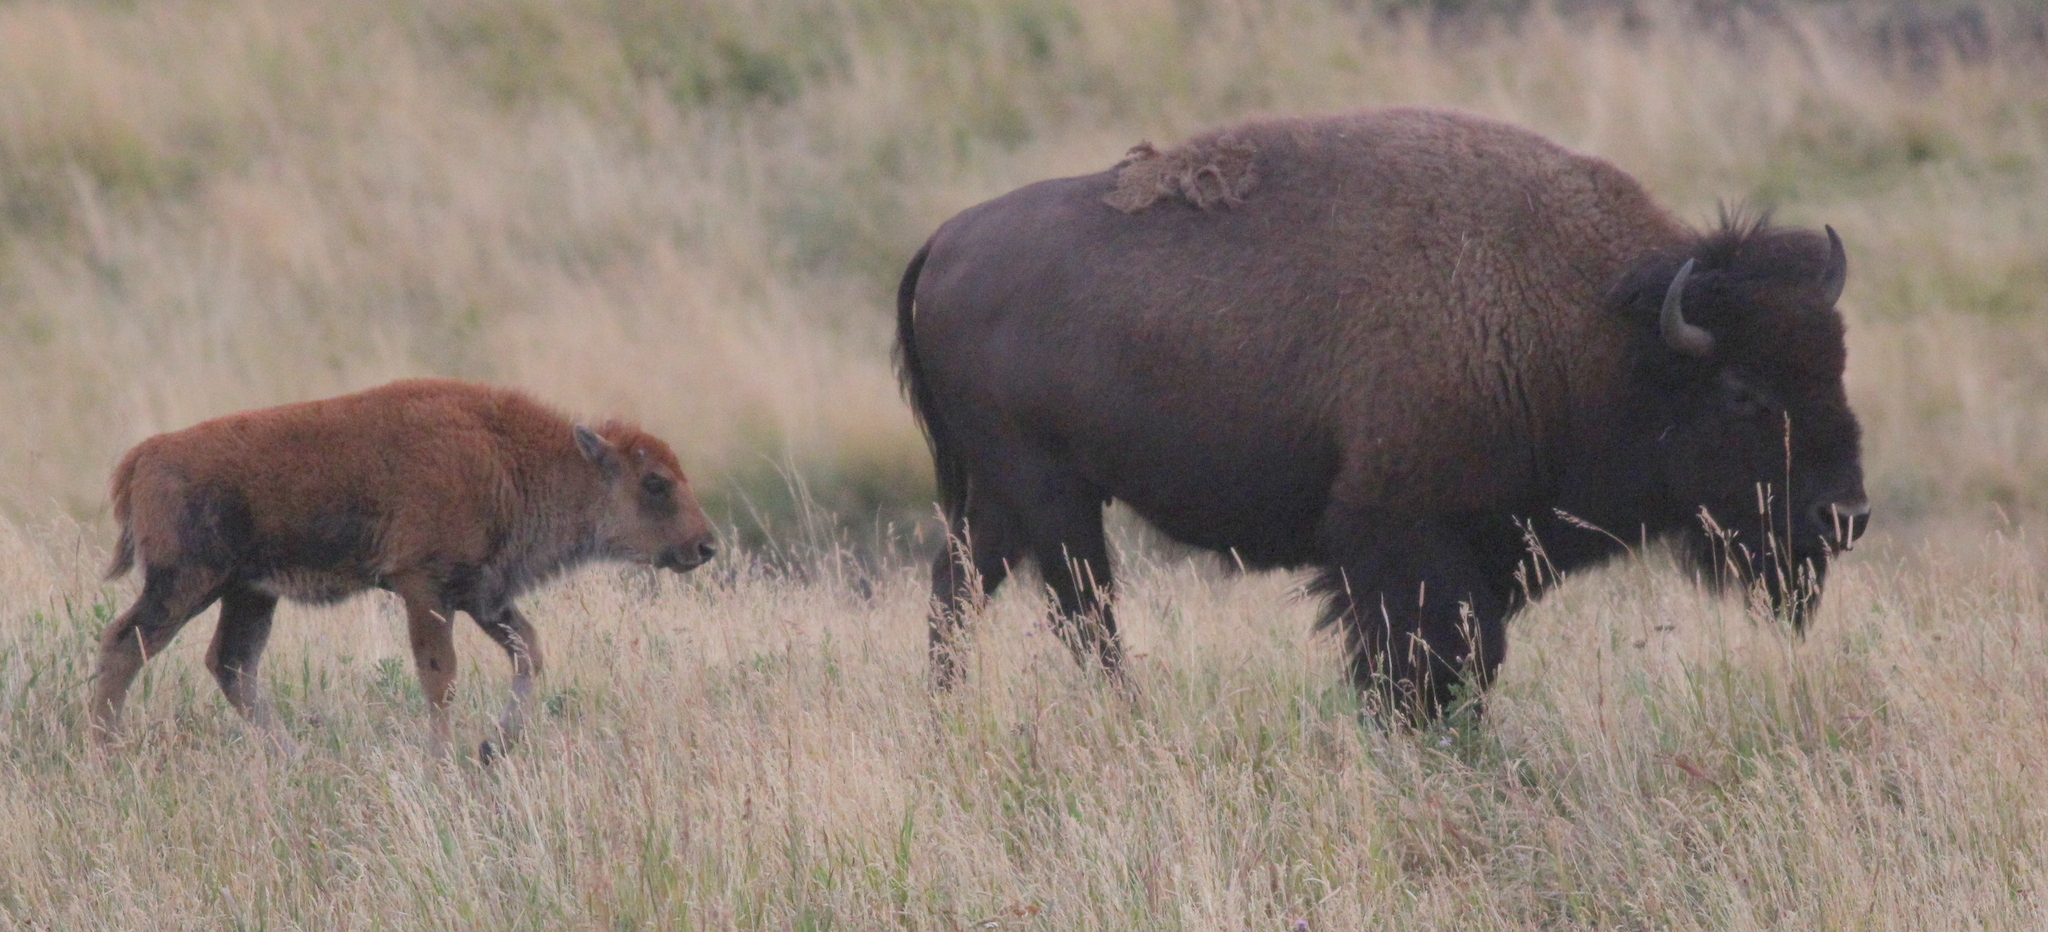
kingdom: Animalia
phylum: Chordata
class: Mammalia
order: Artiodactyla
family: Bovidae
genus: Bison
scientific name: Bison bison
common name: American bison
